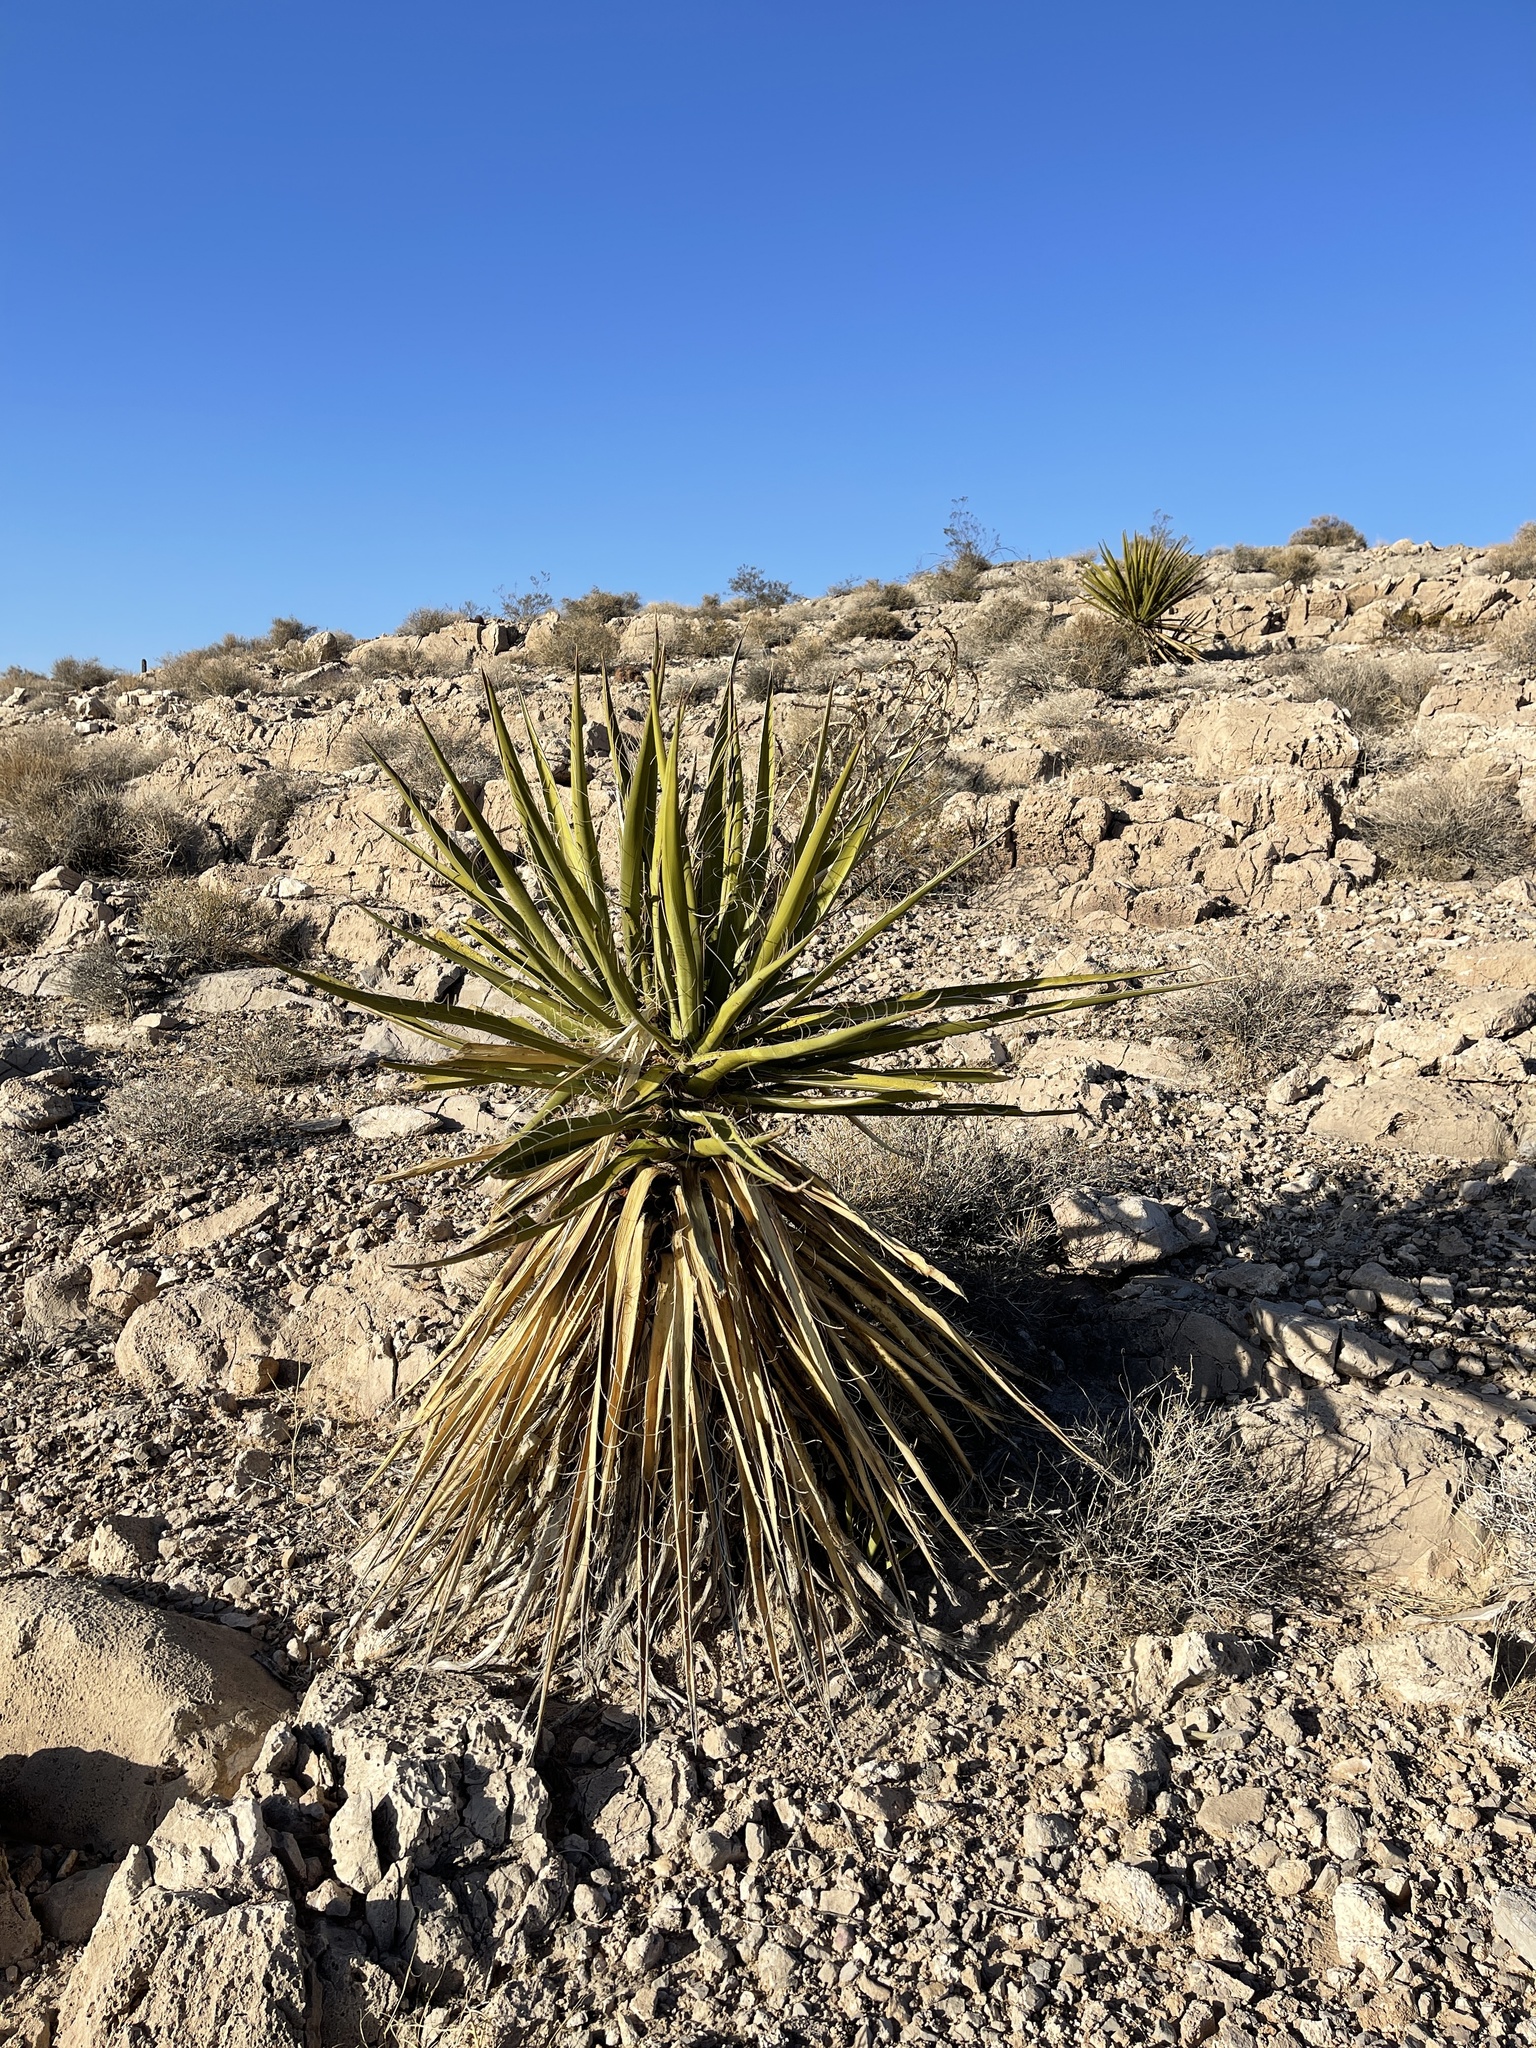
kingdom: Plantae
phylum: Tracheophyta
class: Liliopsida
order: Asparagales
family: Asparagaceae
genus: Yucca
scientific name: Yucca schidigera
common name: Mojave yucca
